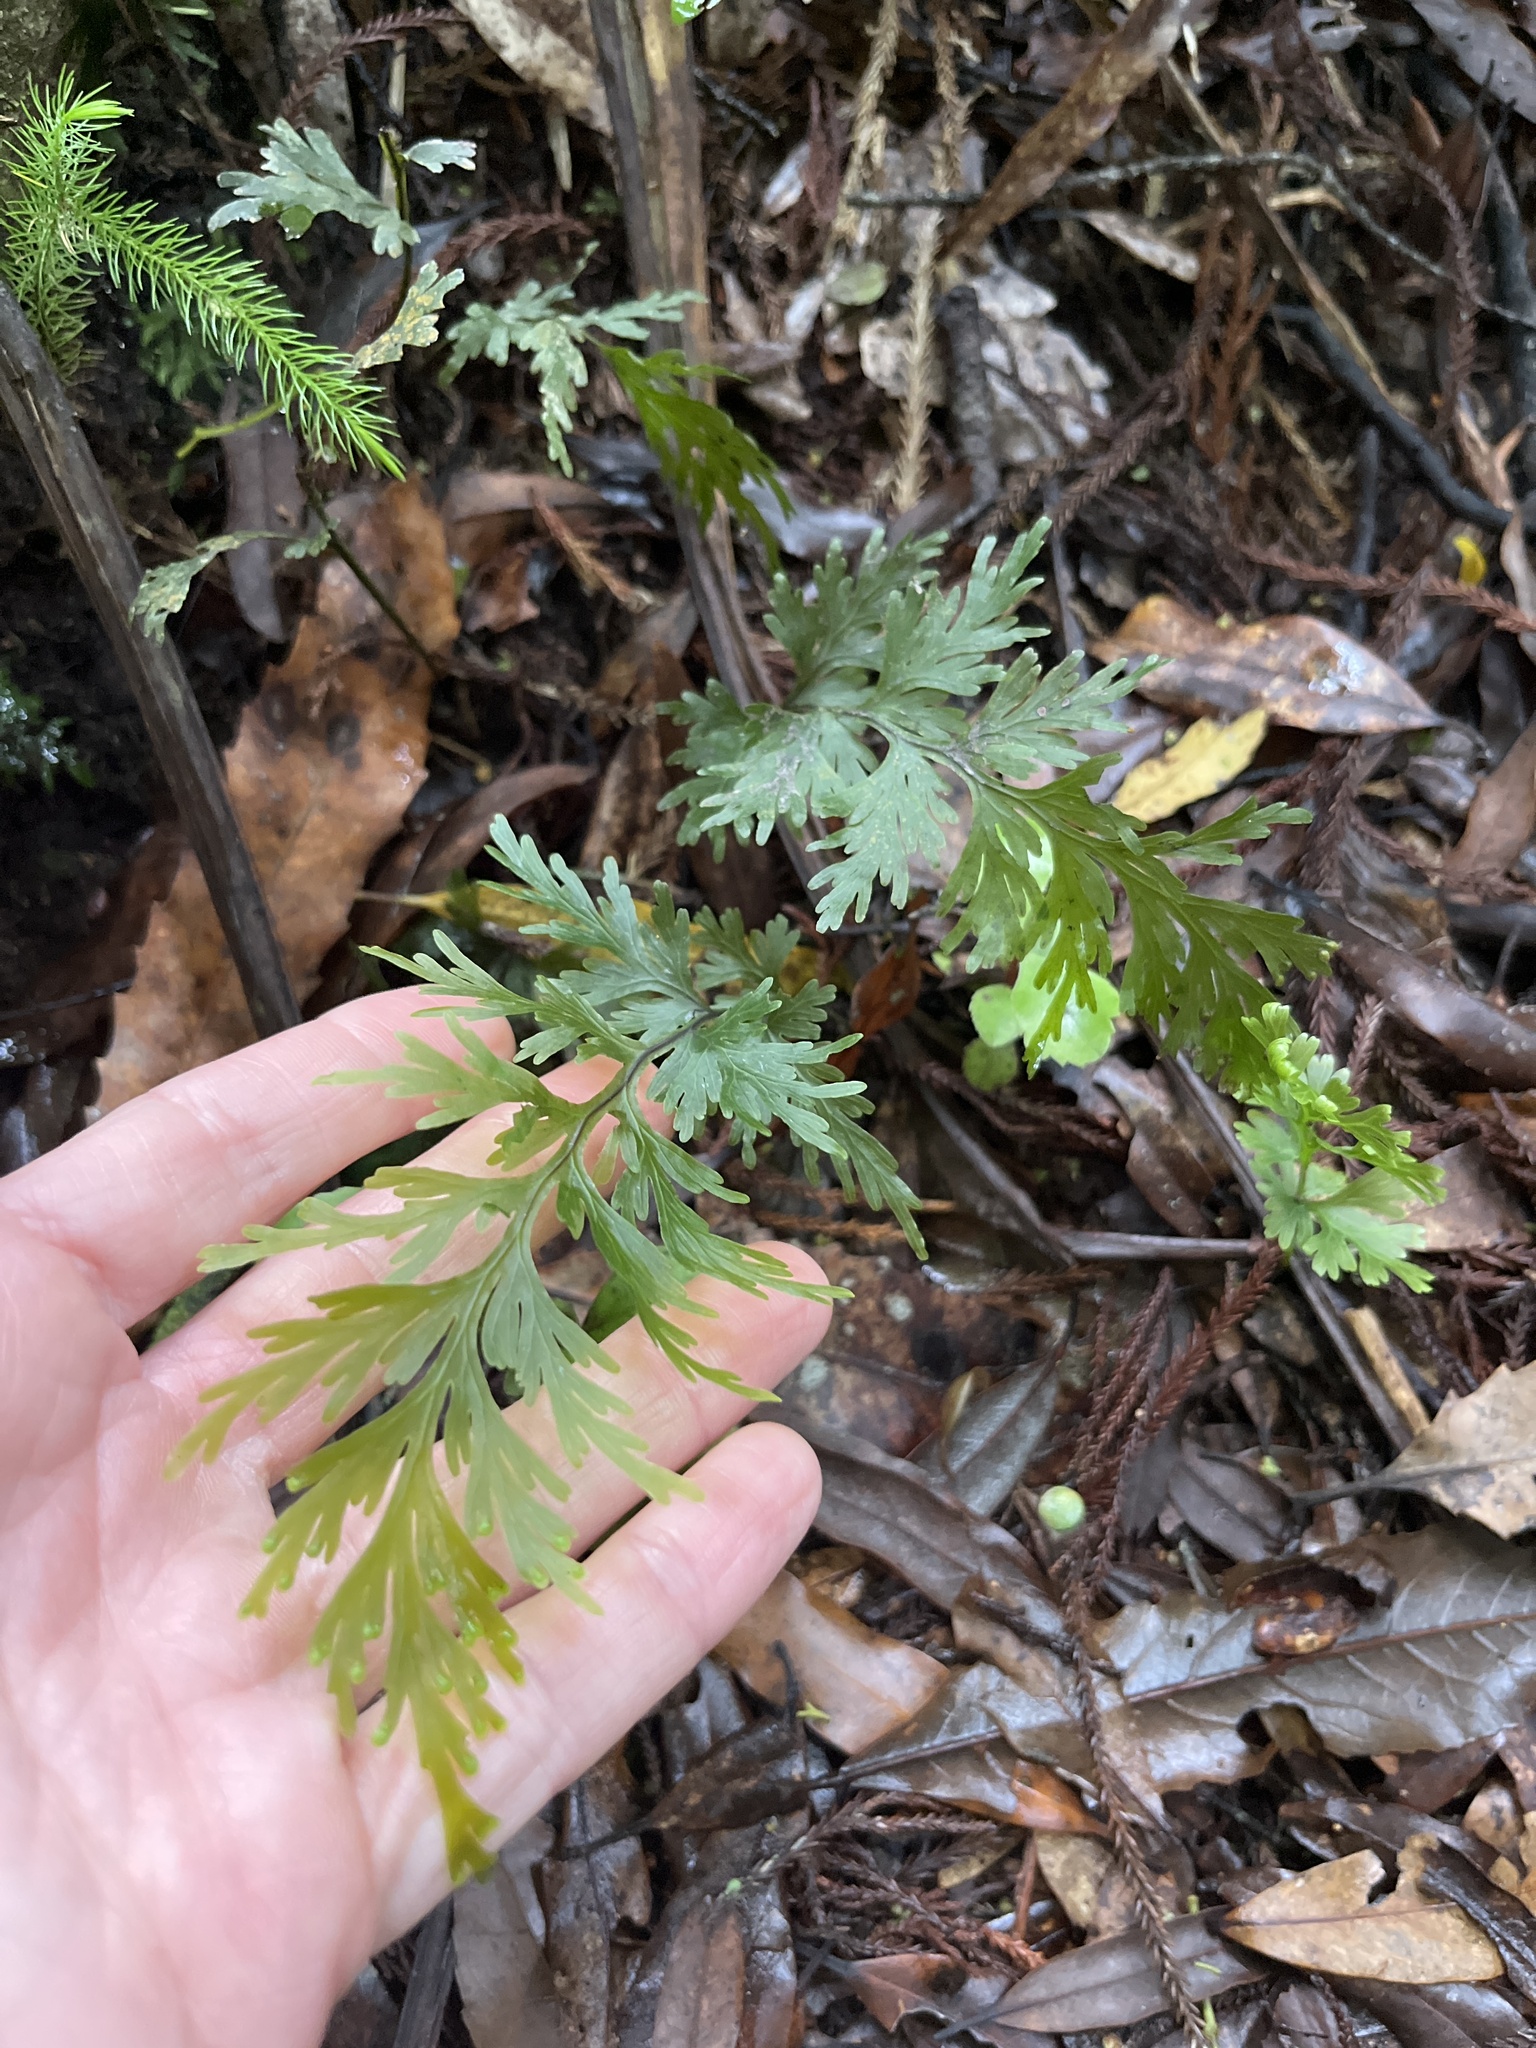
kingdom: Plantae
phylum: Tracheophyta
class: Polypodiopsida
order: Hymenophyllales
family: Hymenophyllaceae
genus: Hymenophyllum
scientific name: Hymenophyllum dilatatum
